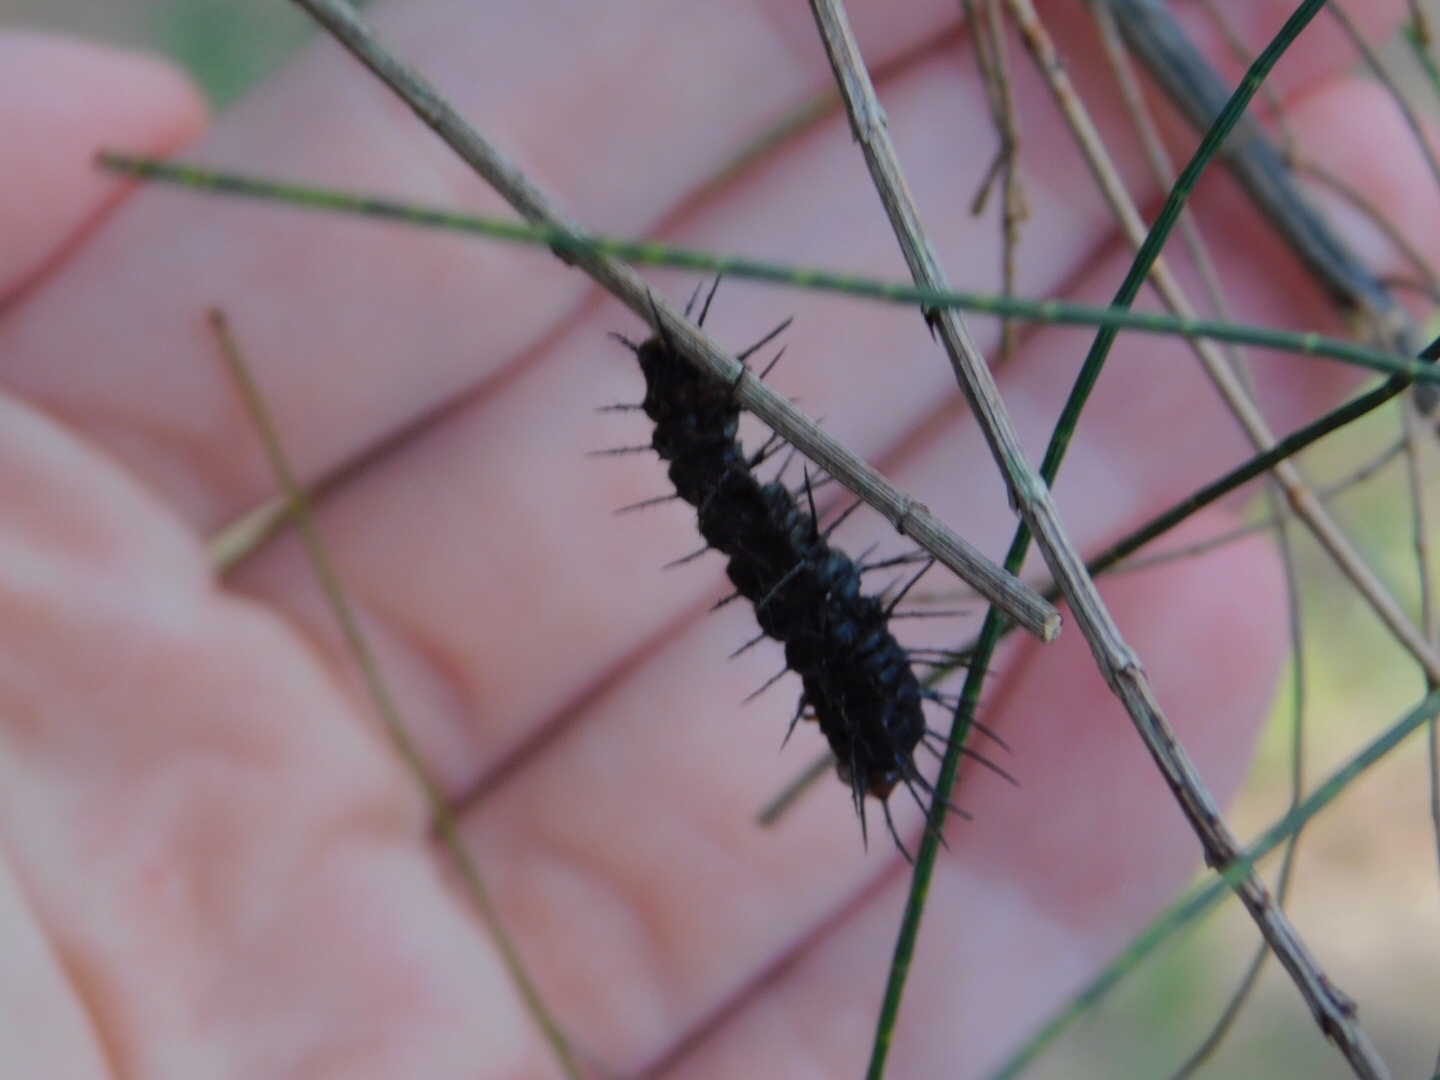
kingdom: Animalia
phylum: Arthropoda
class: Insecta
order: Lepidoptera
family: Nymphalidae
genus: Dione
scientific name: Dione vanillae
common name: Gulf fritillary
